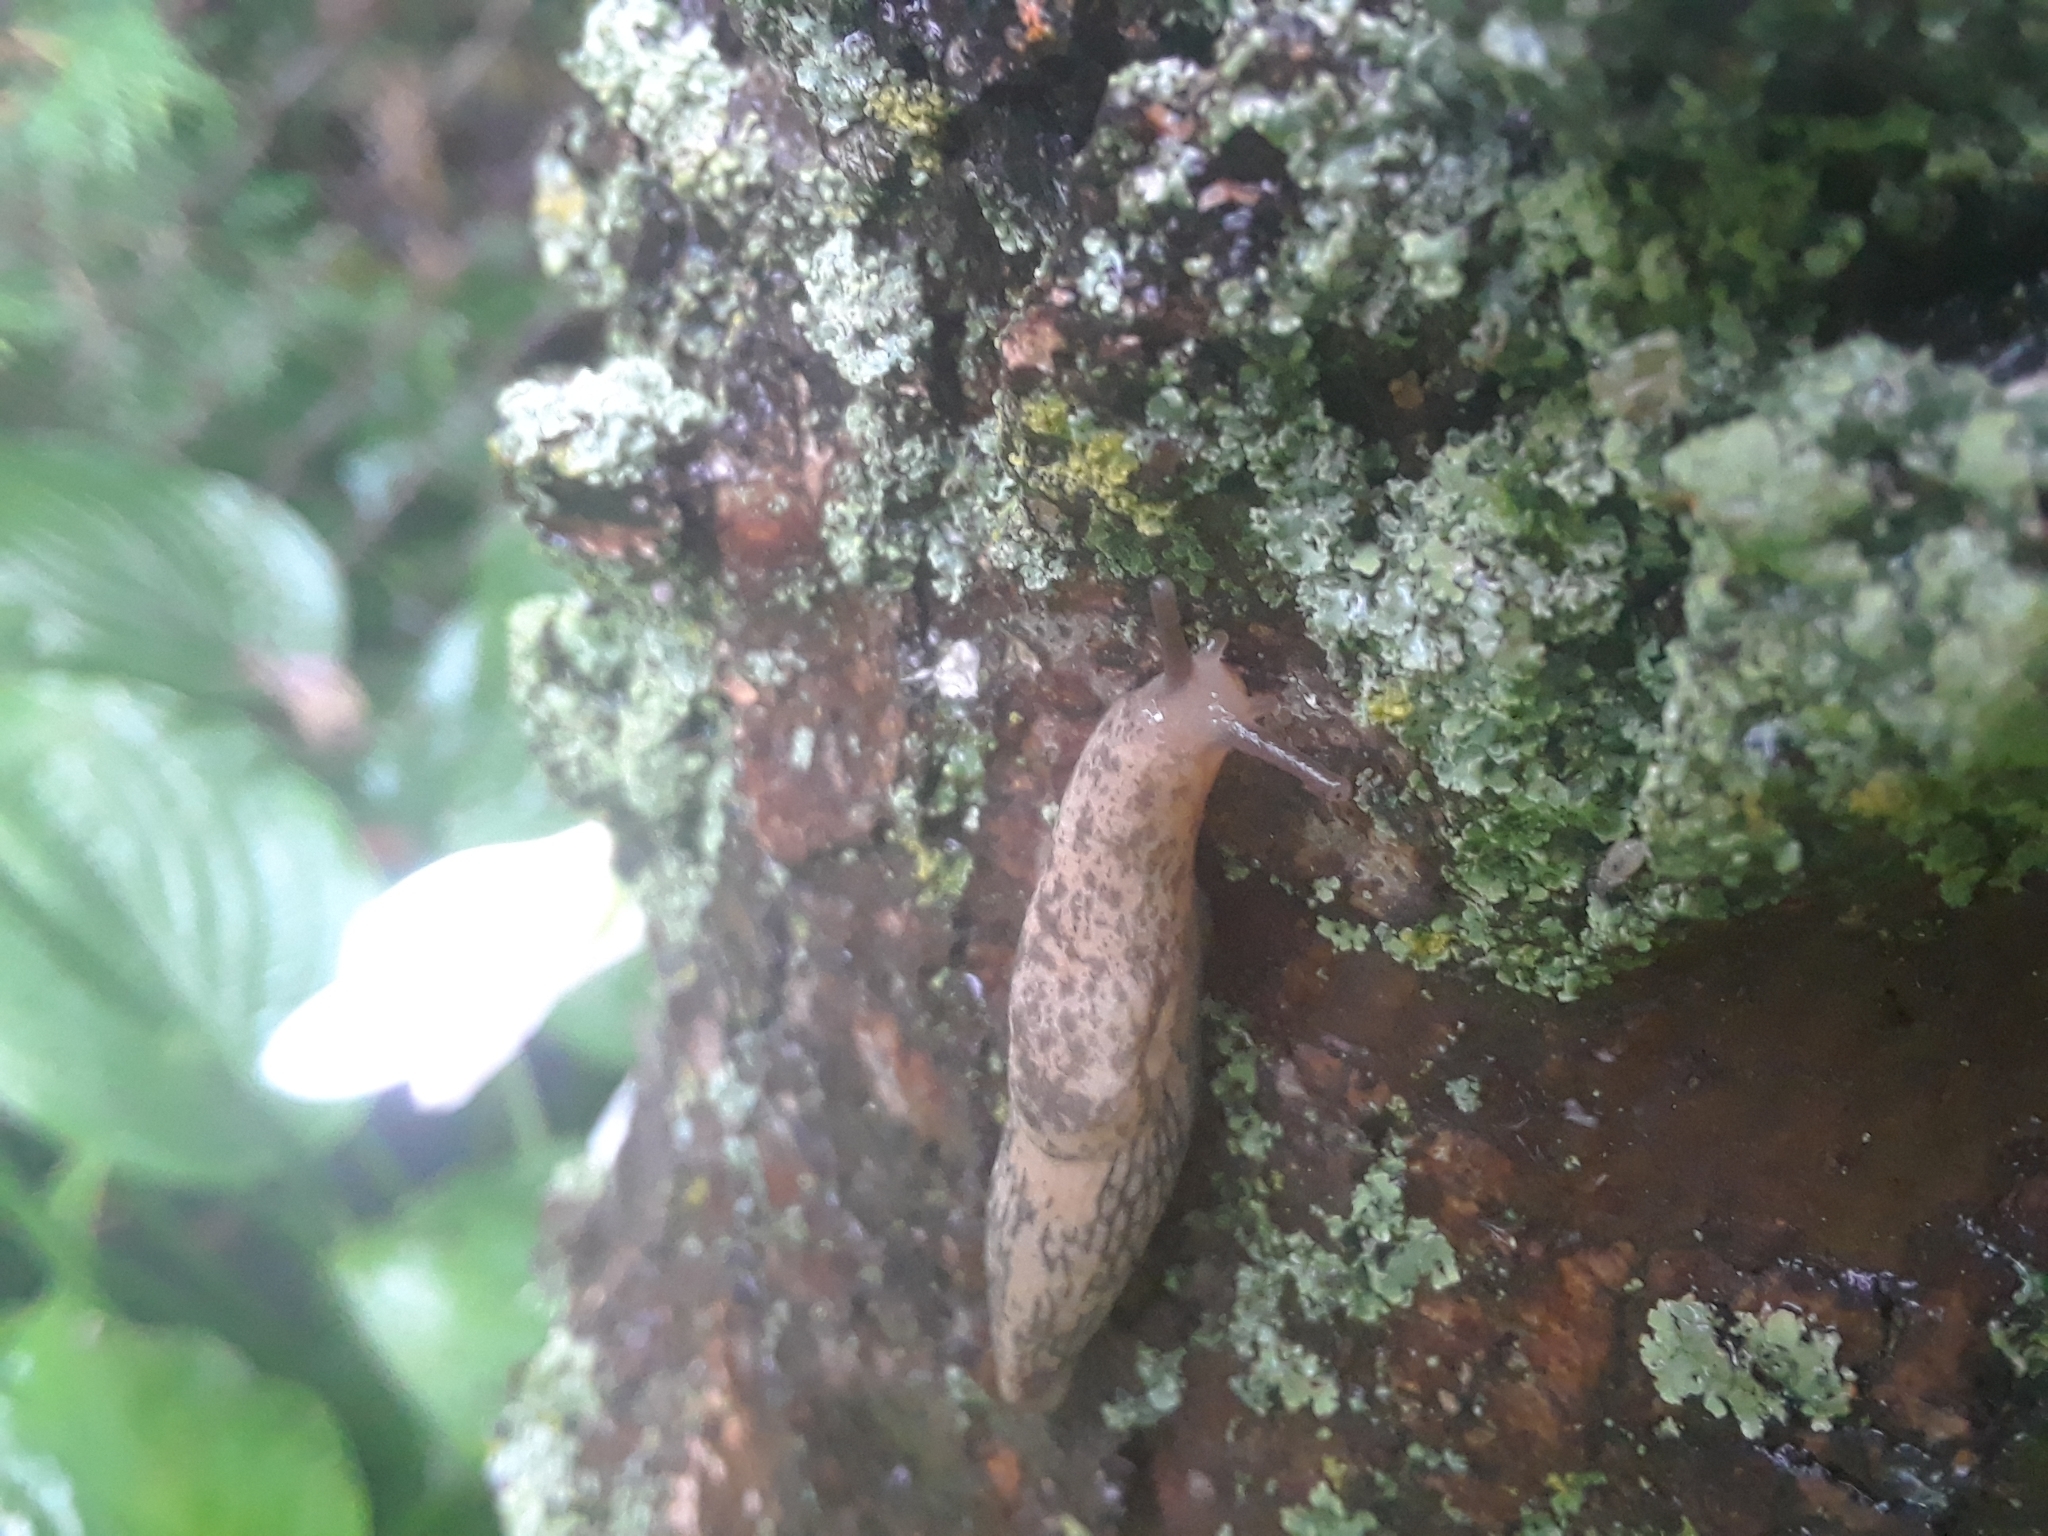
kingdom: Animalia
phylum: Mollusca
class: Gastropoda
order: Stylommatophora
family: Agriolimacidae
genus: Deroceras
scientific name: Deroceras reticulatum
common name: Gray field slug
